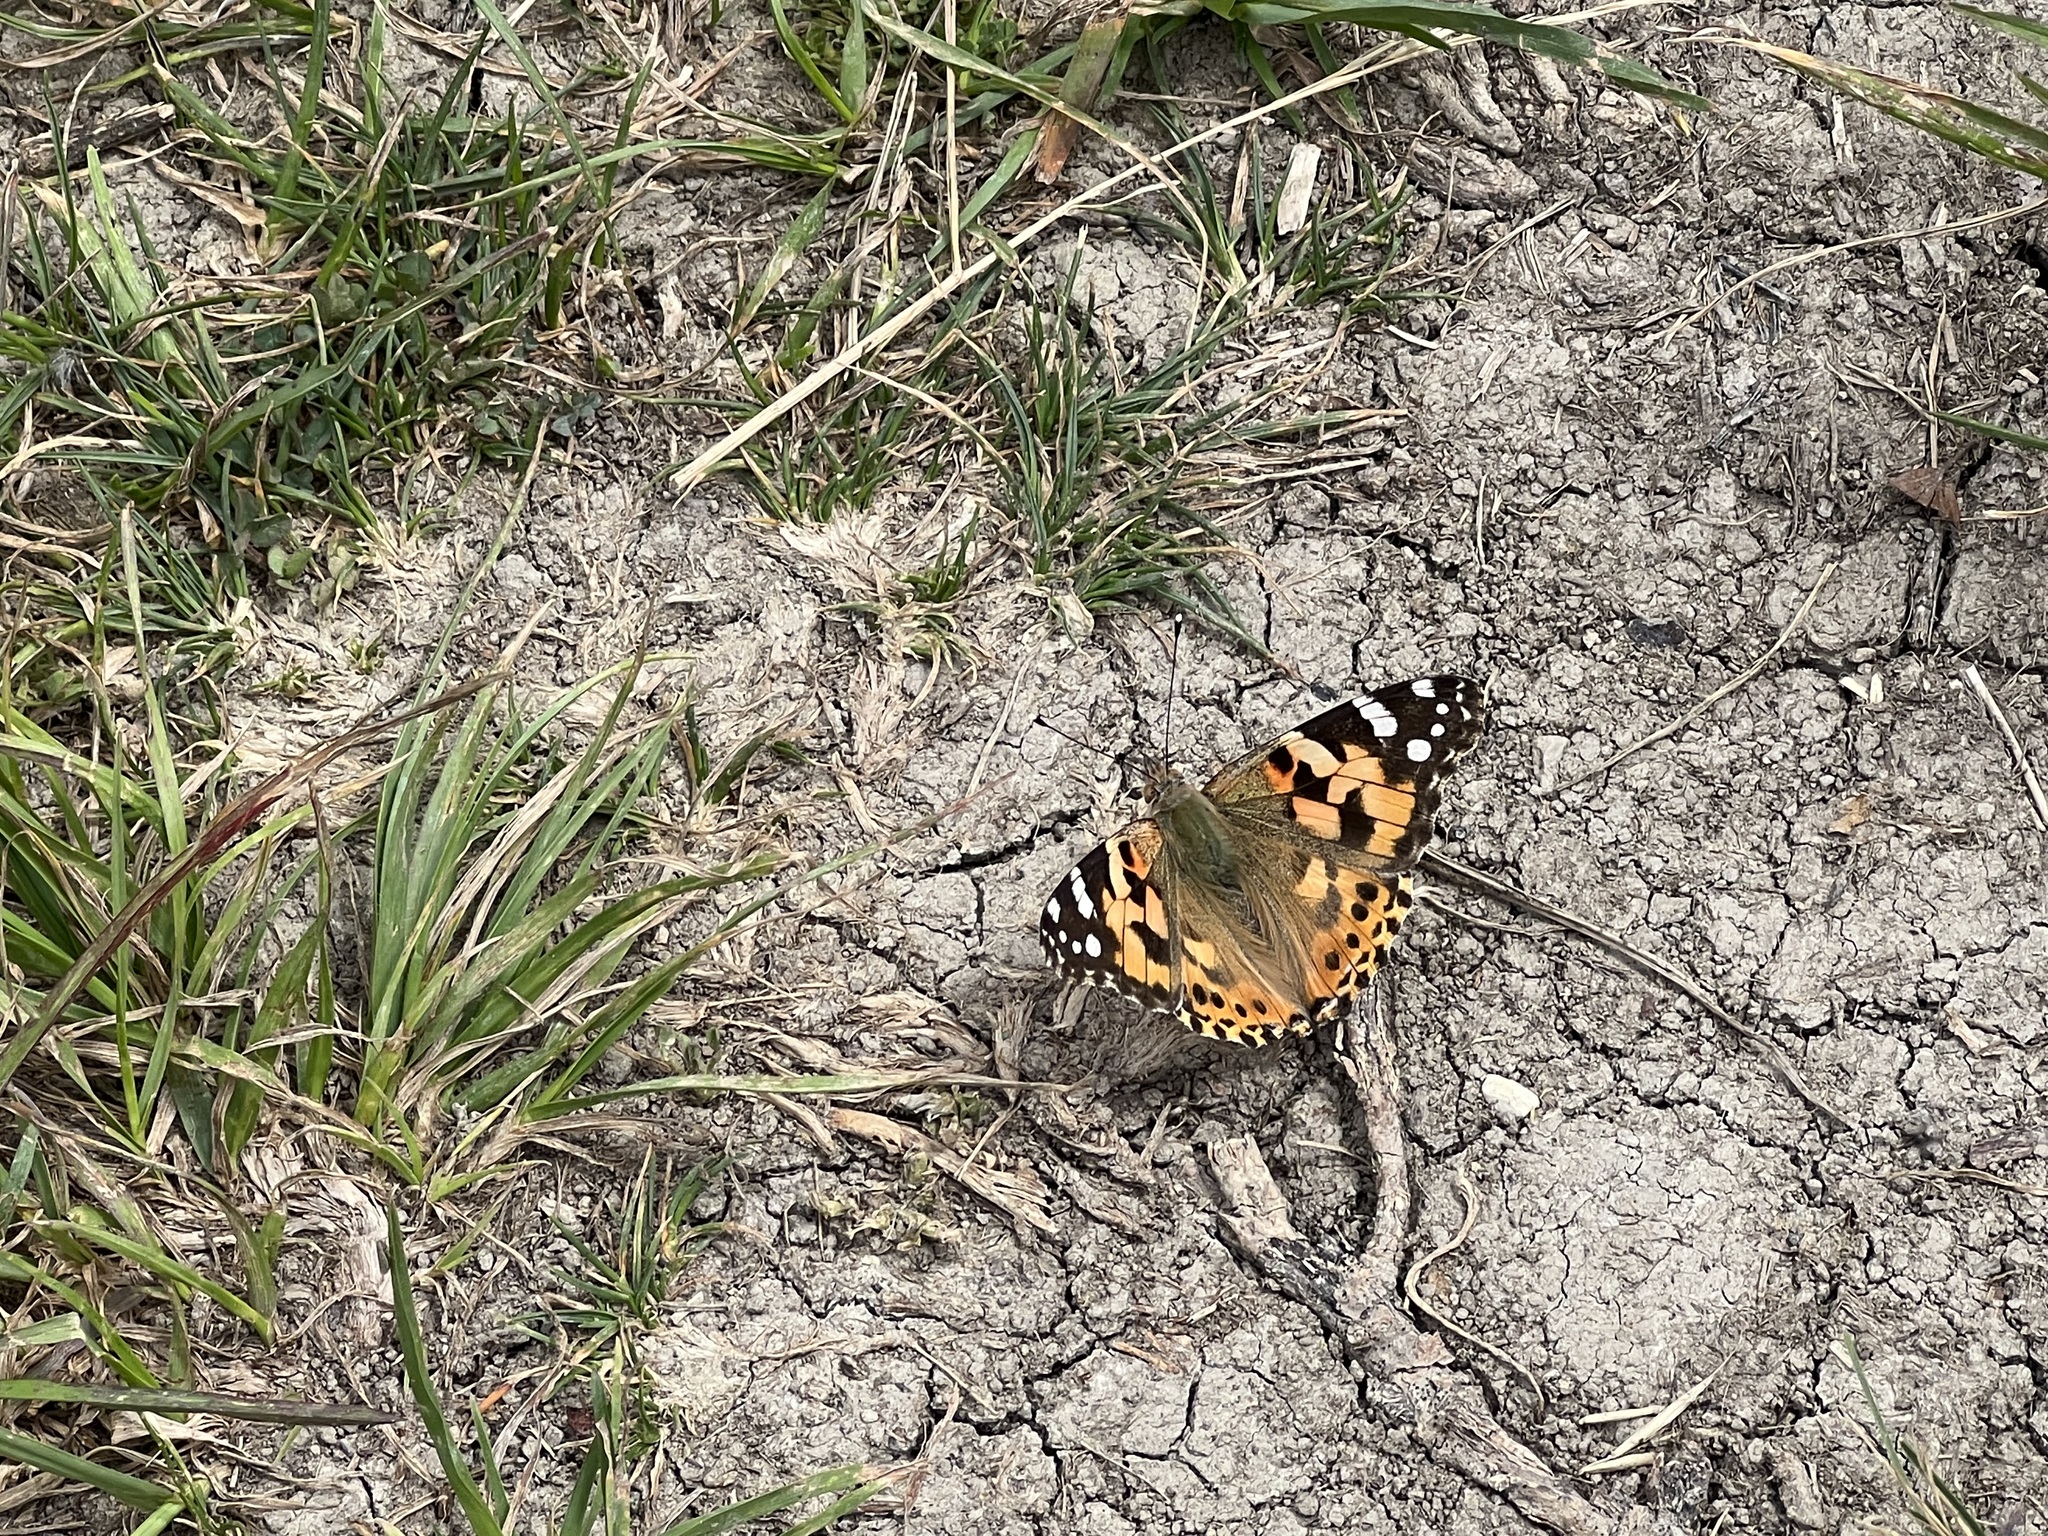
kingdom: Animalia
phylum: Arthropoda
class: Insecta
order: Lepidoptera
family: Nymphalidae
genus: Vanessa
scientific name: Vanessa cardui
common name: Painted lady
